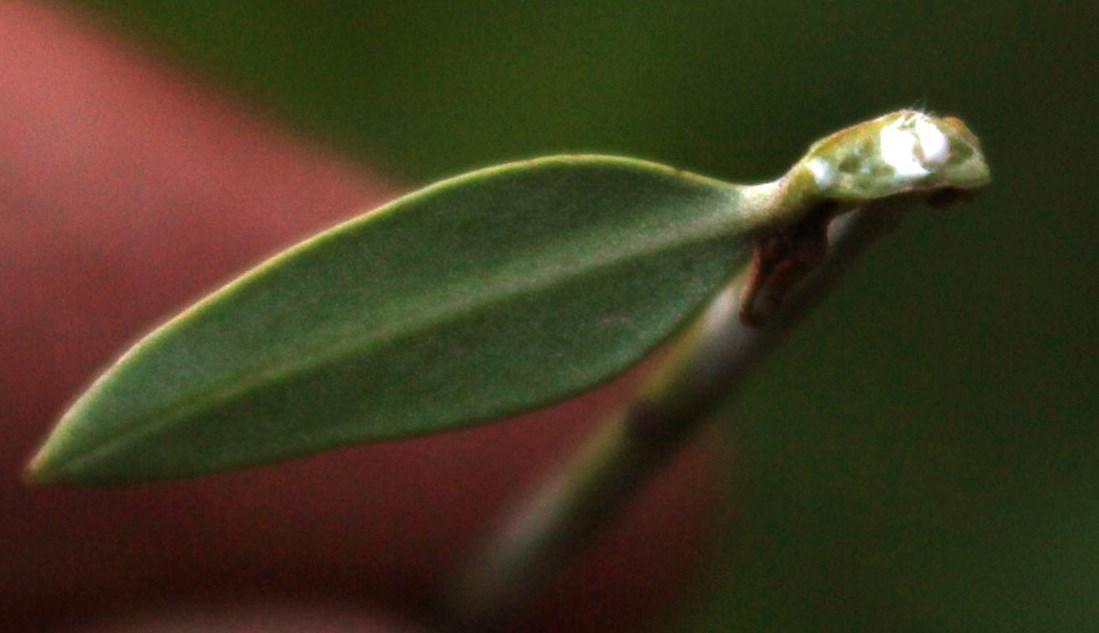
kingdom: Plantae
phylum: Tracheophyta
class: Magnoliopsida
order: Gentianales
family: Apocynaceae
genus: Secamone
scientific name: Secamone alpini
